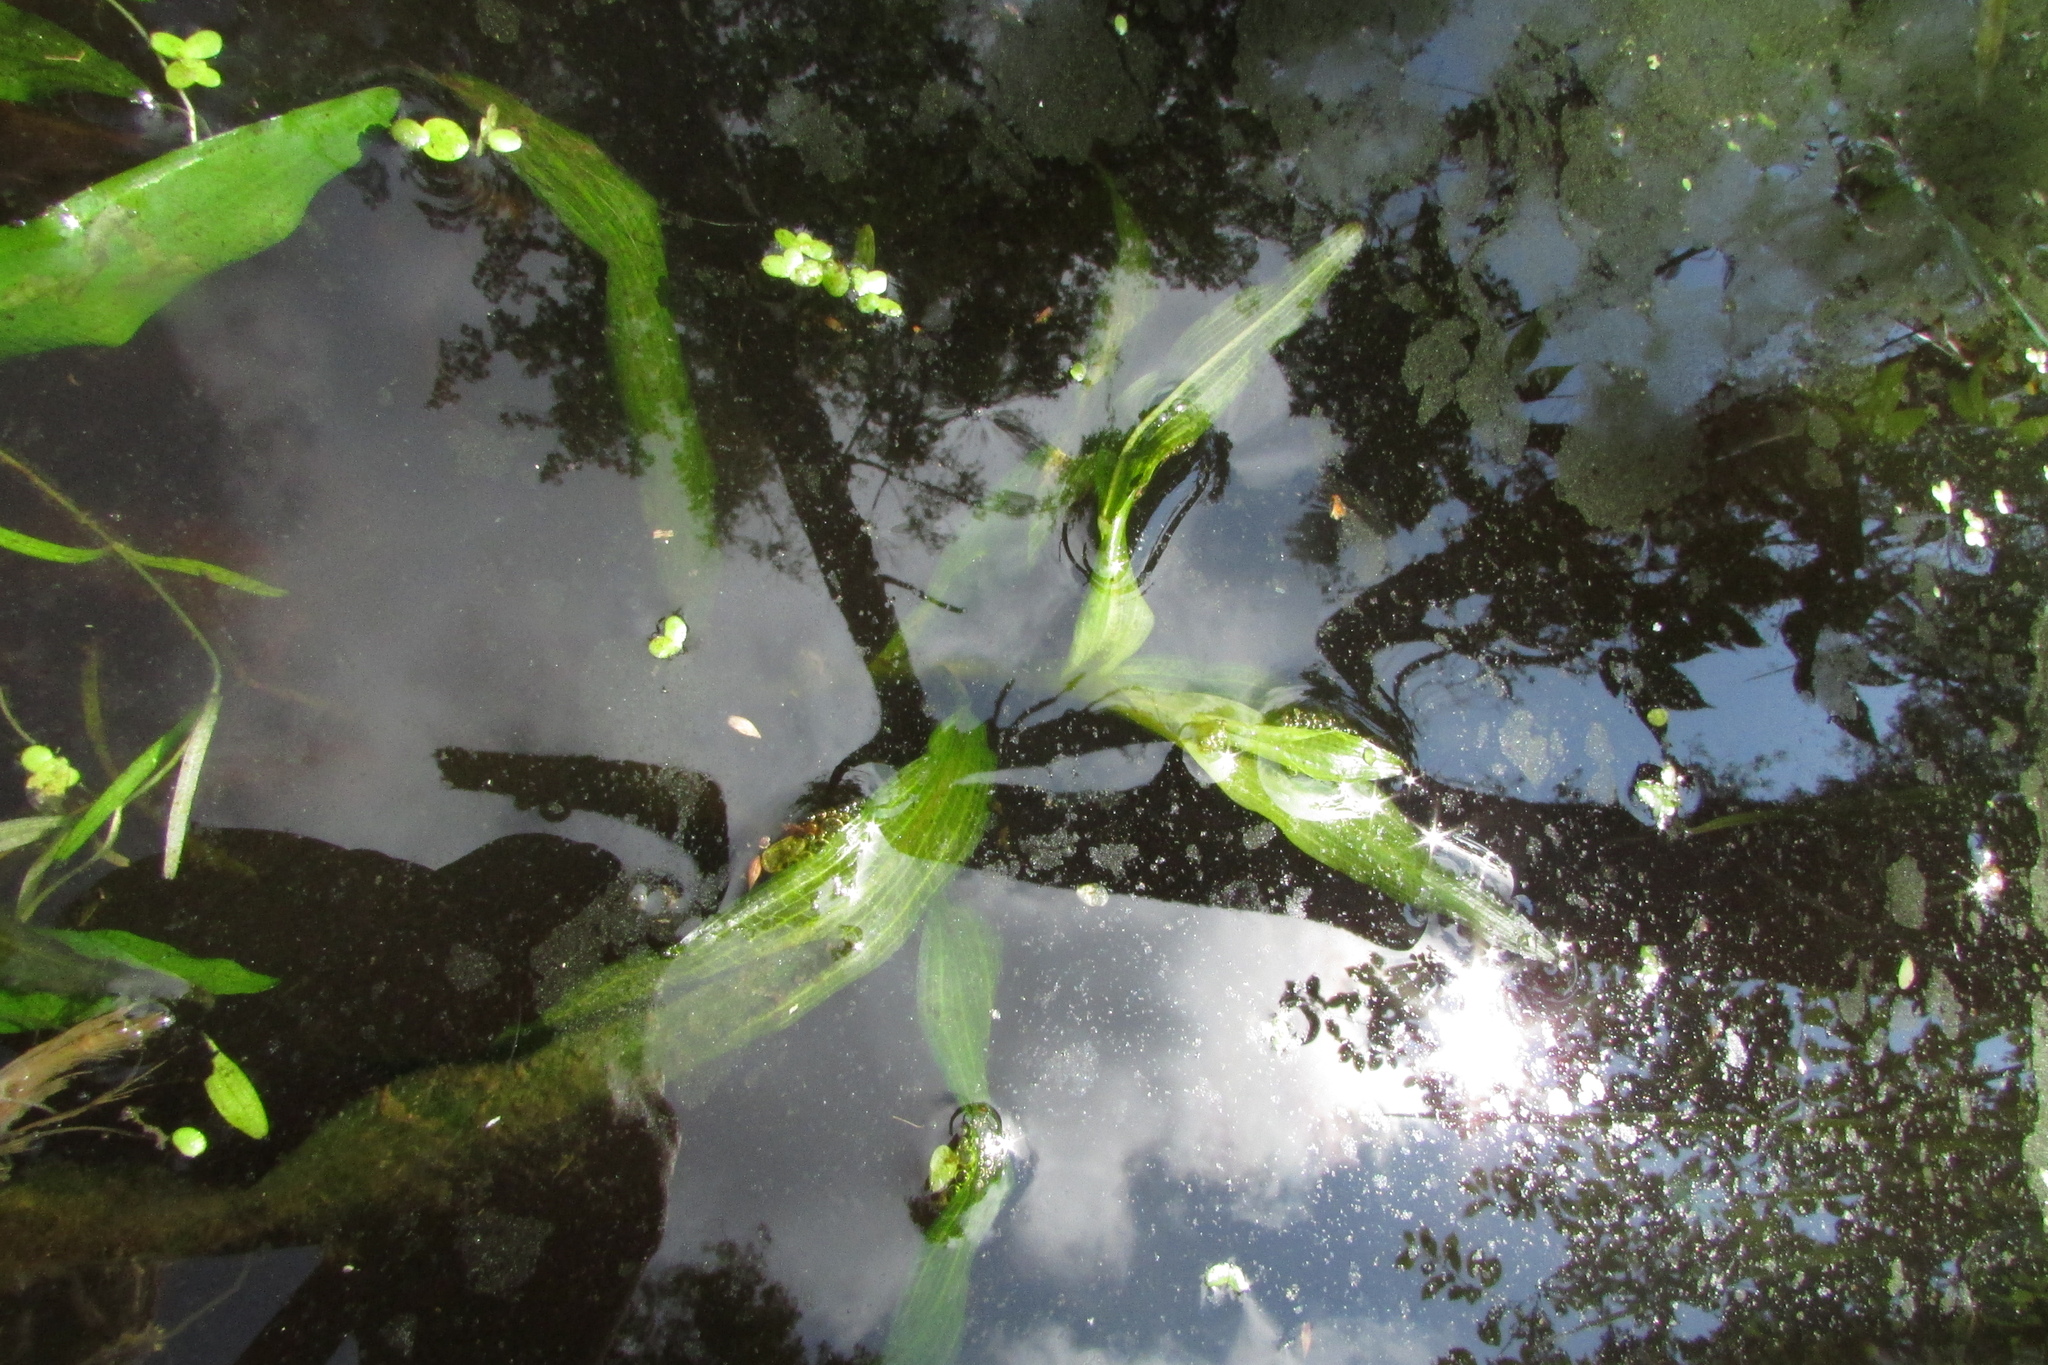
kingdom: Plantae
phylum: Tracheophyta
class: Liliopsida
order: Alismatales
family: Potamogetonaceae
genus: Potamogeton
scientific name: Potamogeton alpinus
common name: Red pondweed
